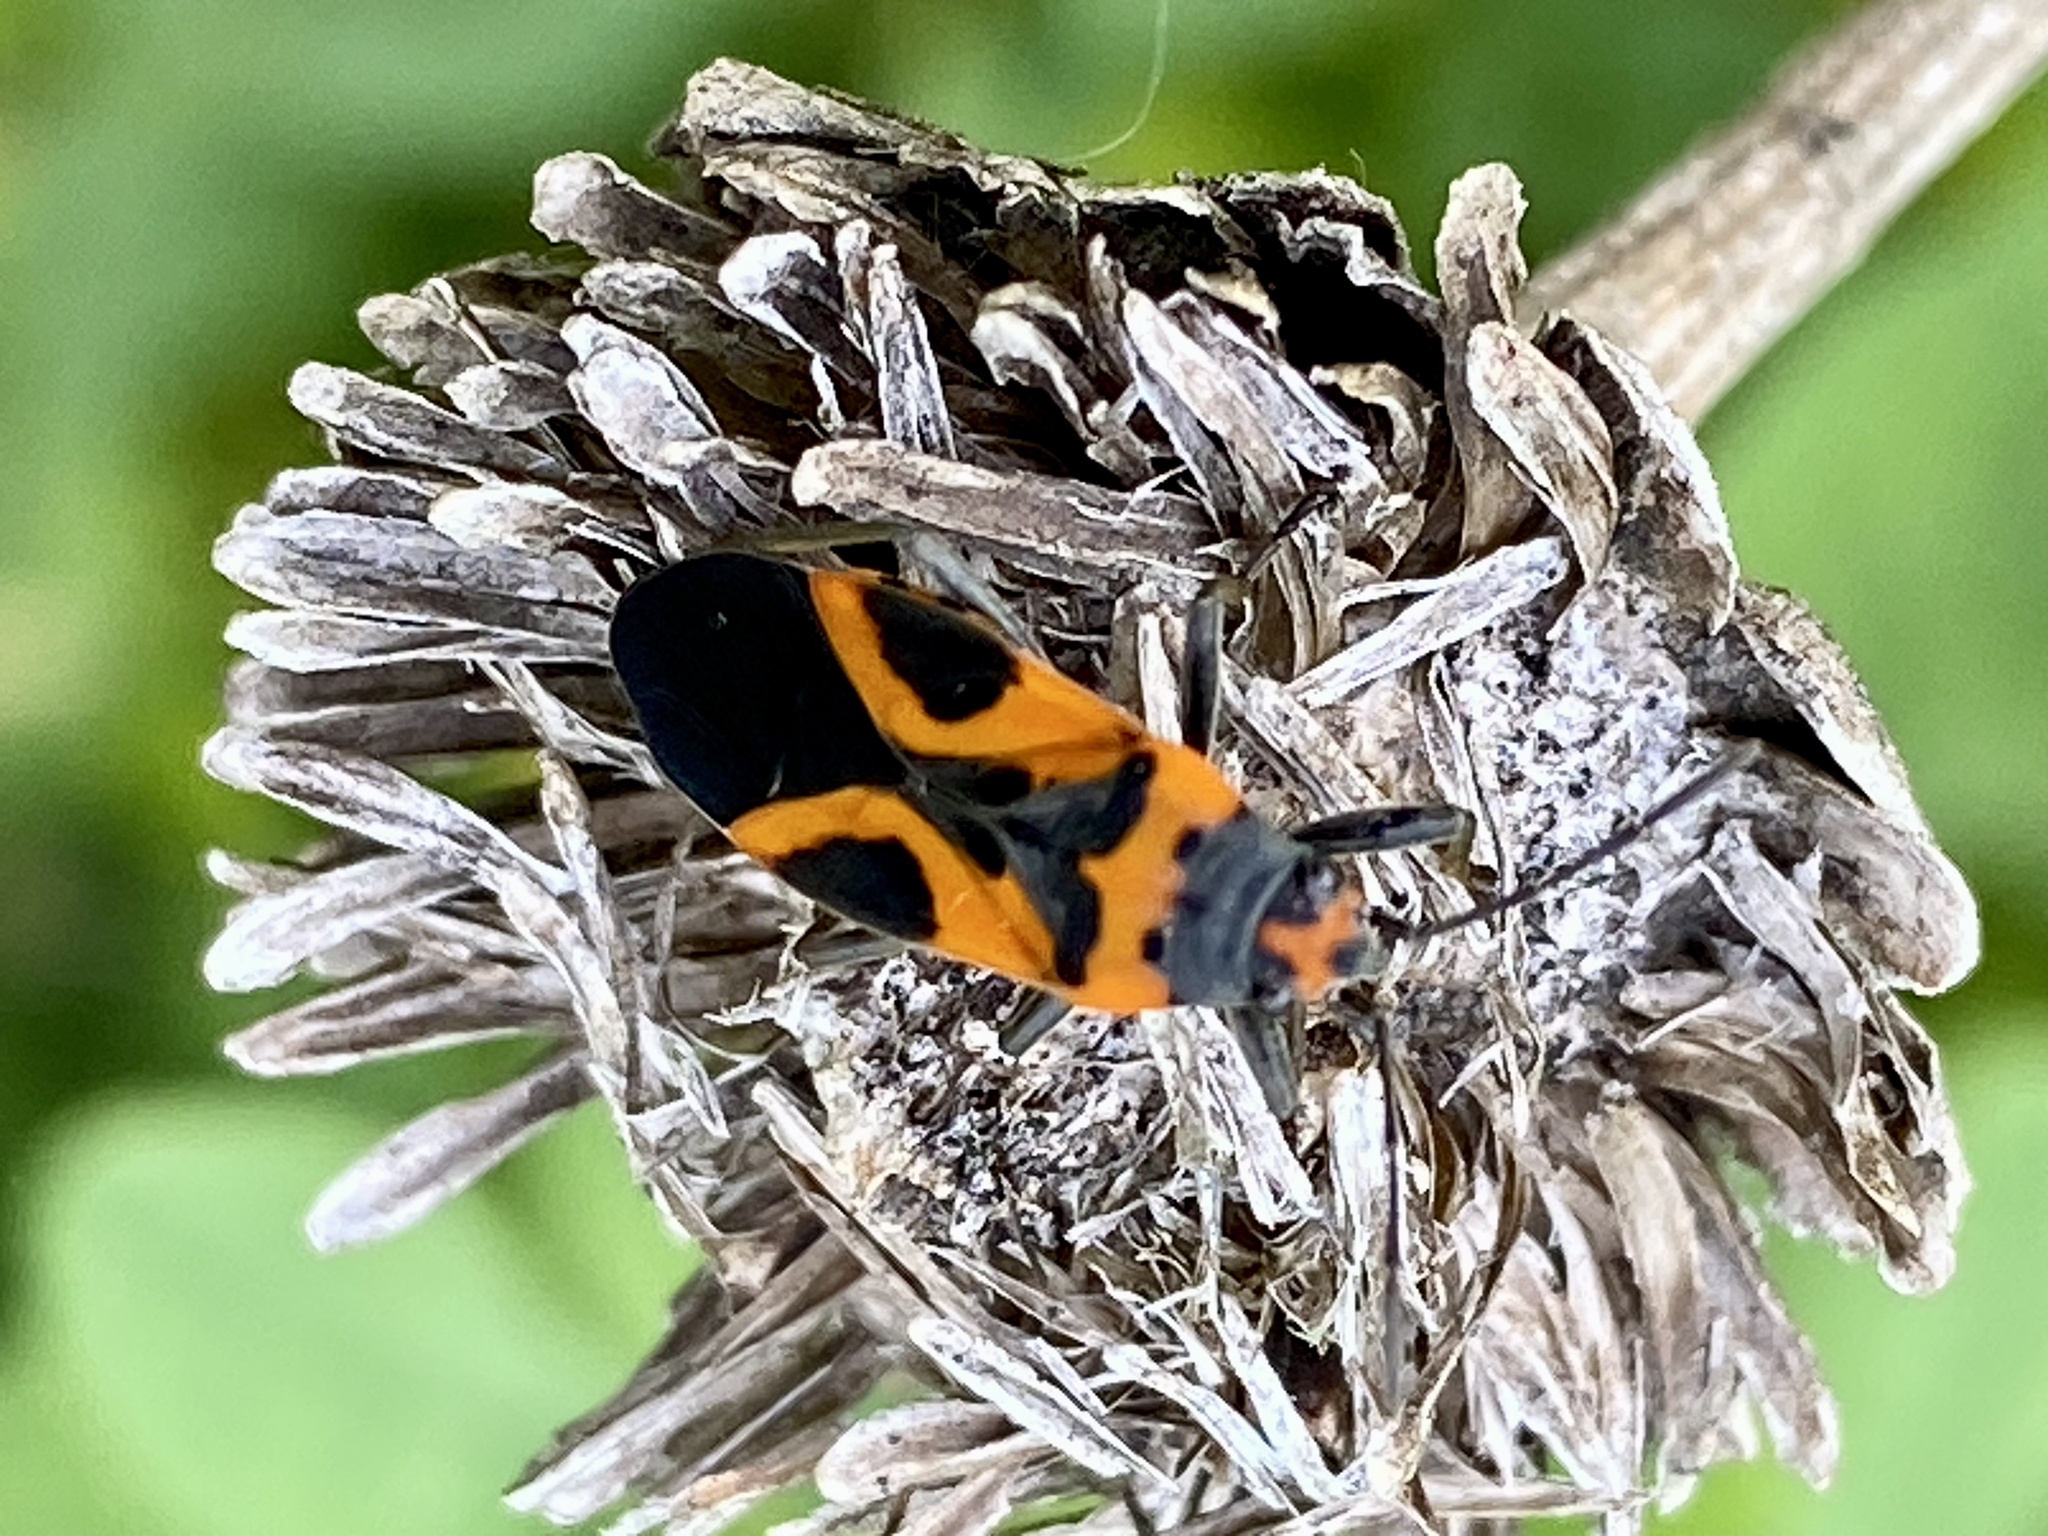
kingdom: Animalia
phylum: Arthropoda
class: Insecta
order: Hemiptera
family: Lygaeidae
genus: Lygaeus
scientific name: Lygaeus turcicus
